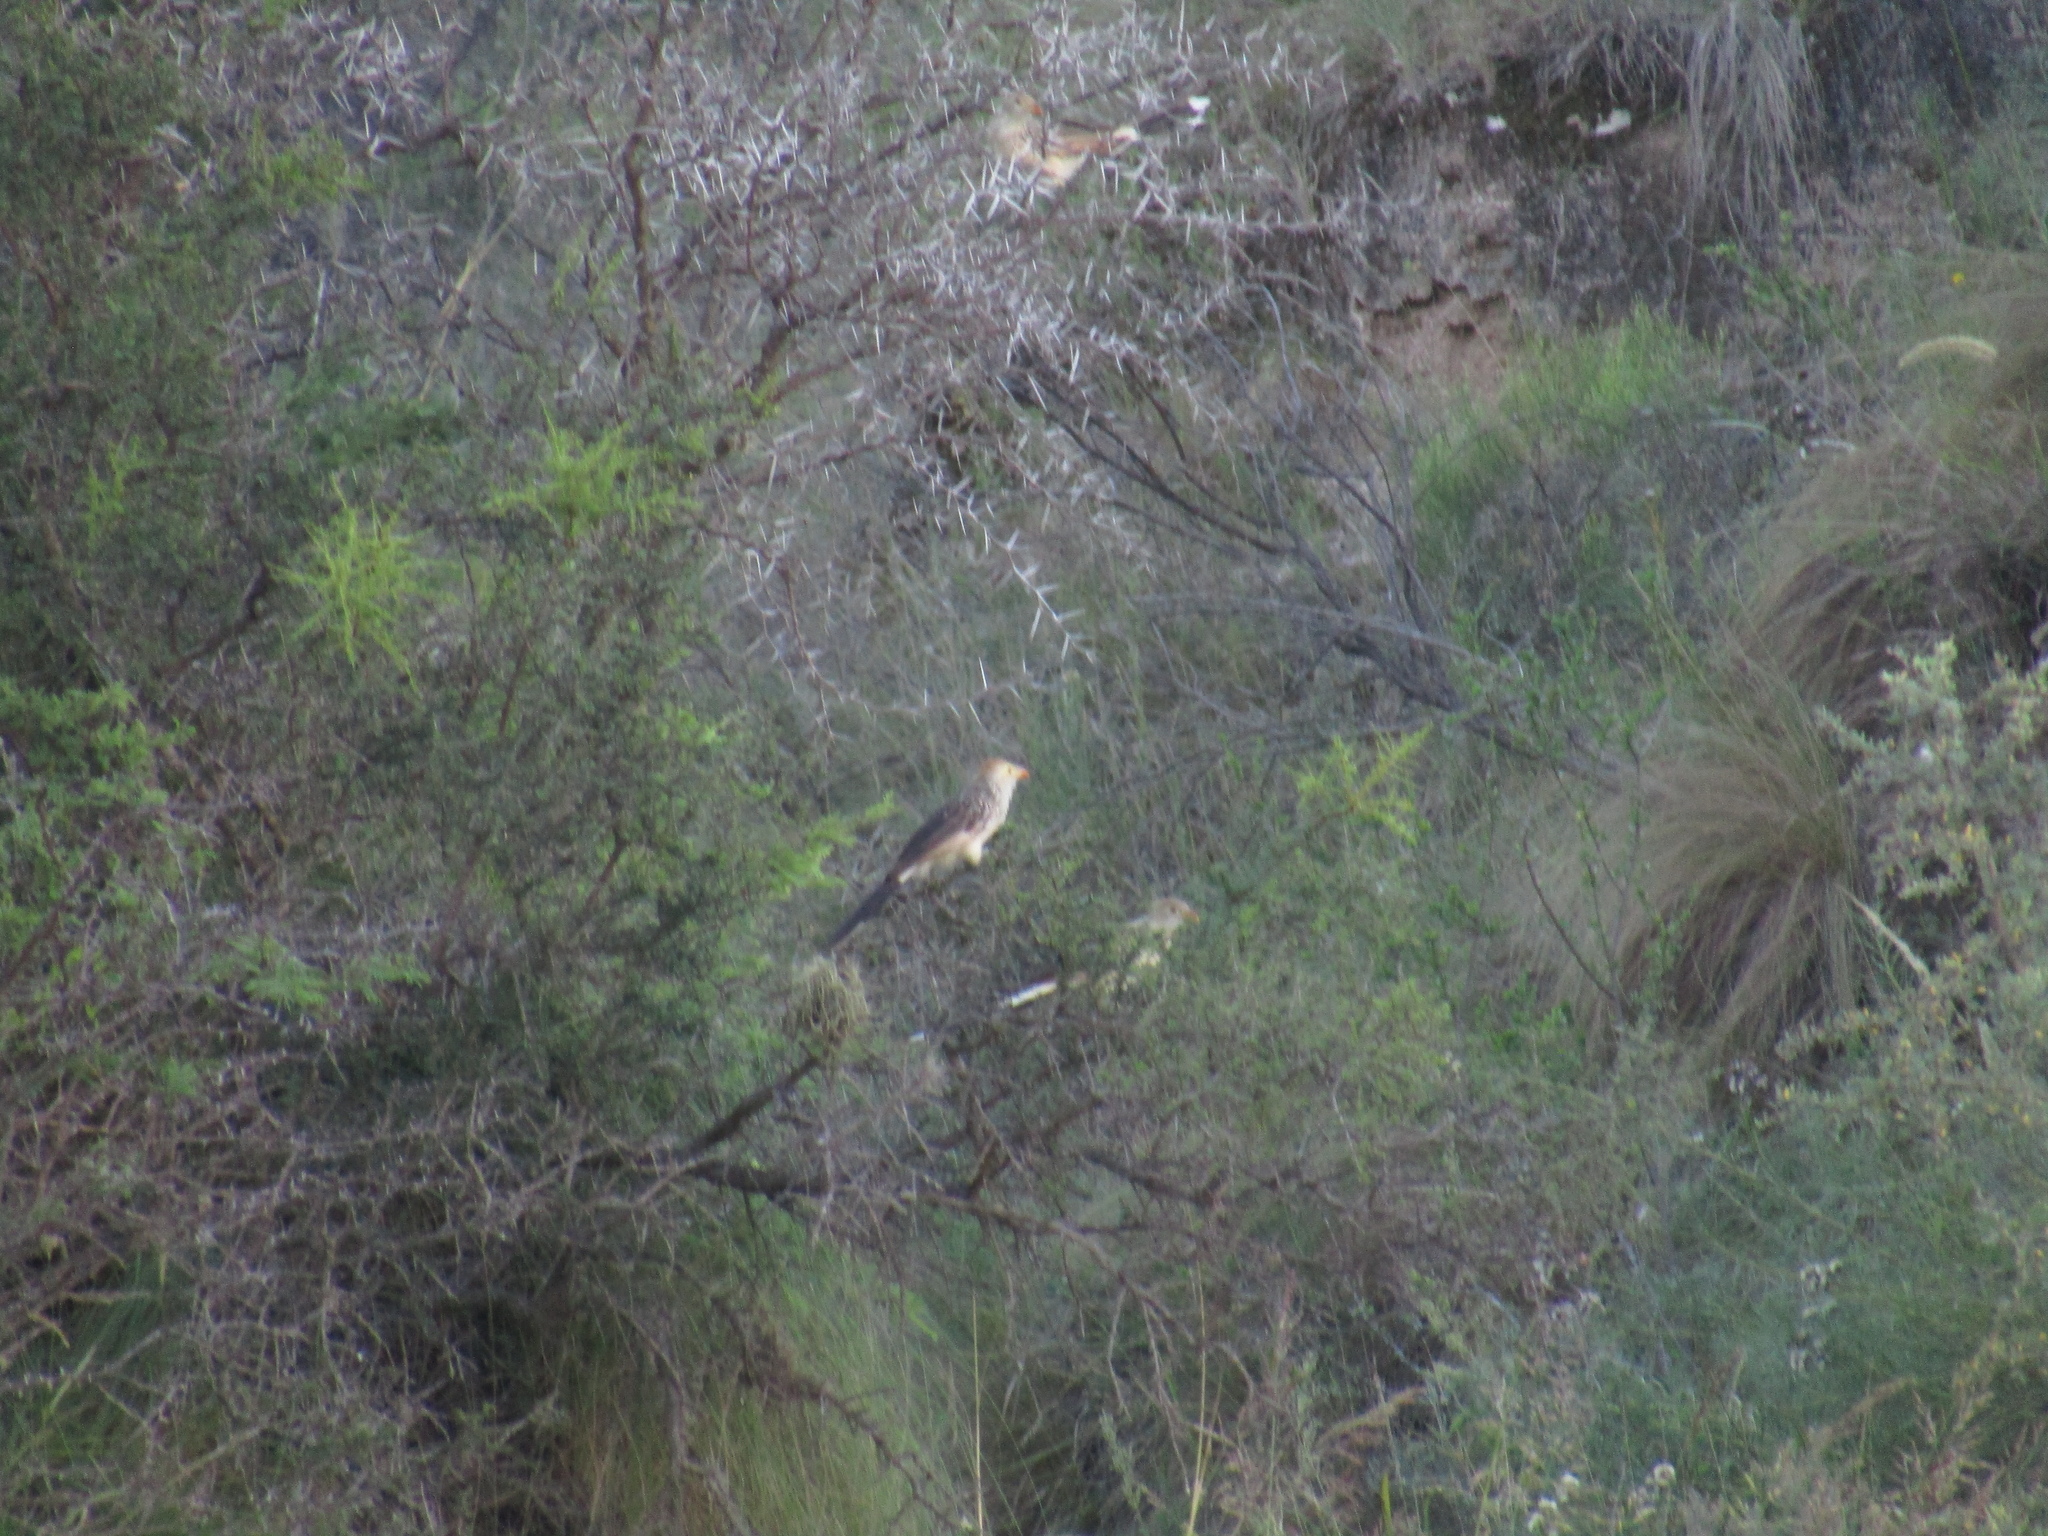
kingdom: Animalia
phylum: Chordata
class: Aves
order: Cuculiformes
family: Cuculidae
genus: Guira
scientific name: Guira guira
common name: Guira cuckoo
